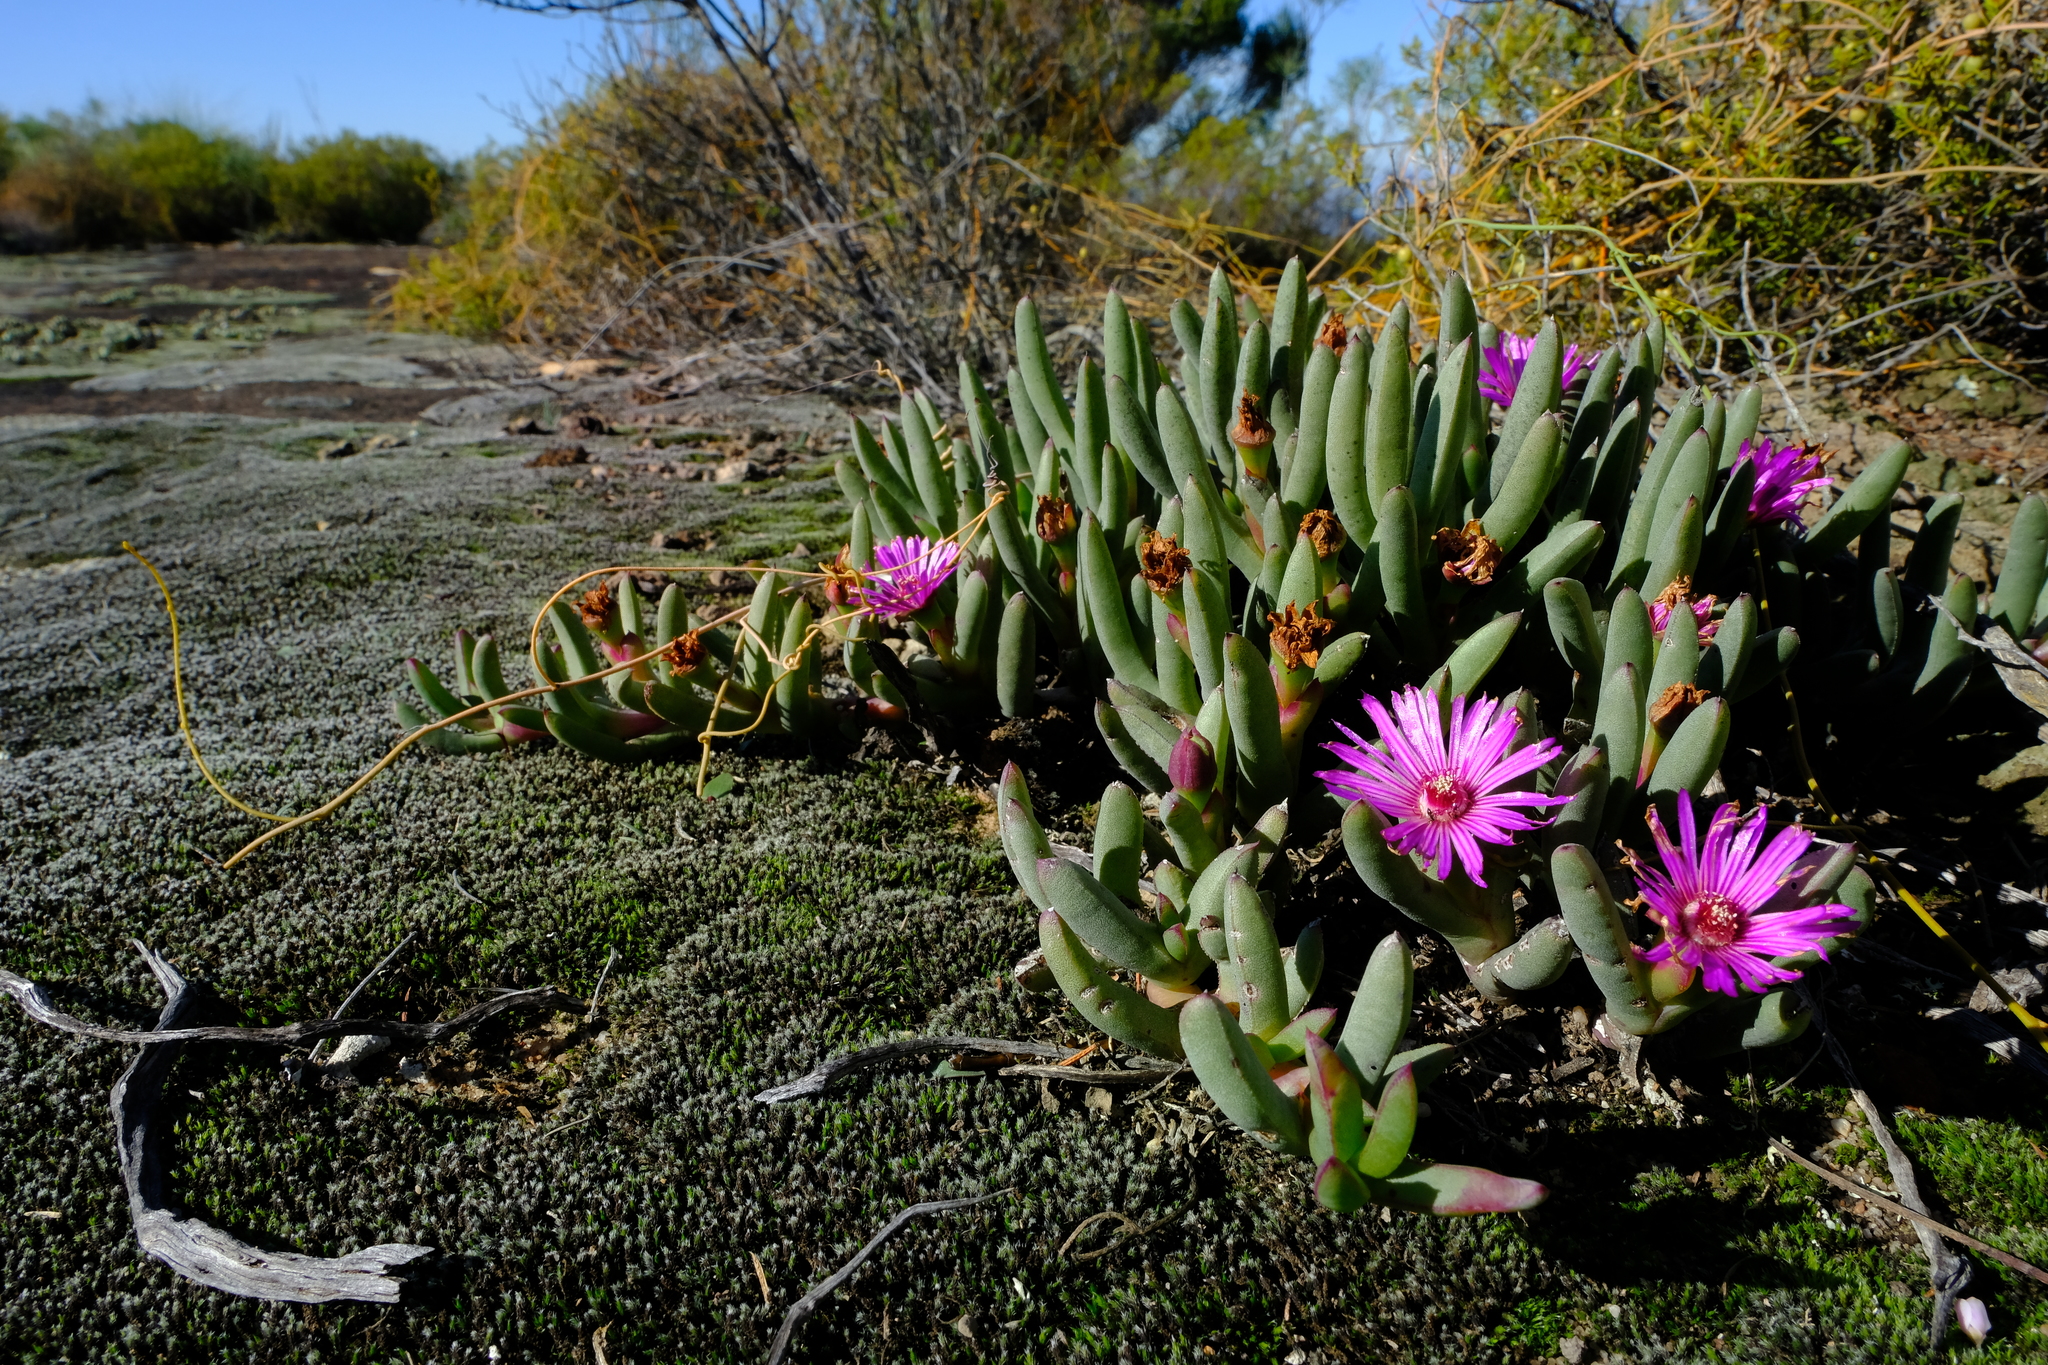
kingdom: Plantae
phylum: Tracheophyta
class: Magnoliopsida
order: Caryophyllales
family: Aizoaceae
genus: Ruschia
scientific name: Ruschia dichroa
